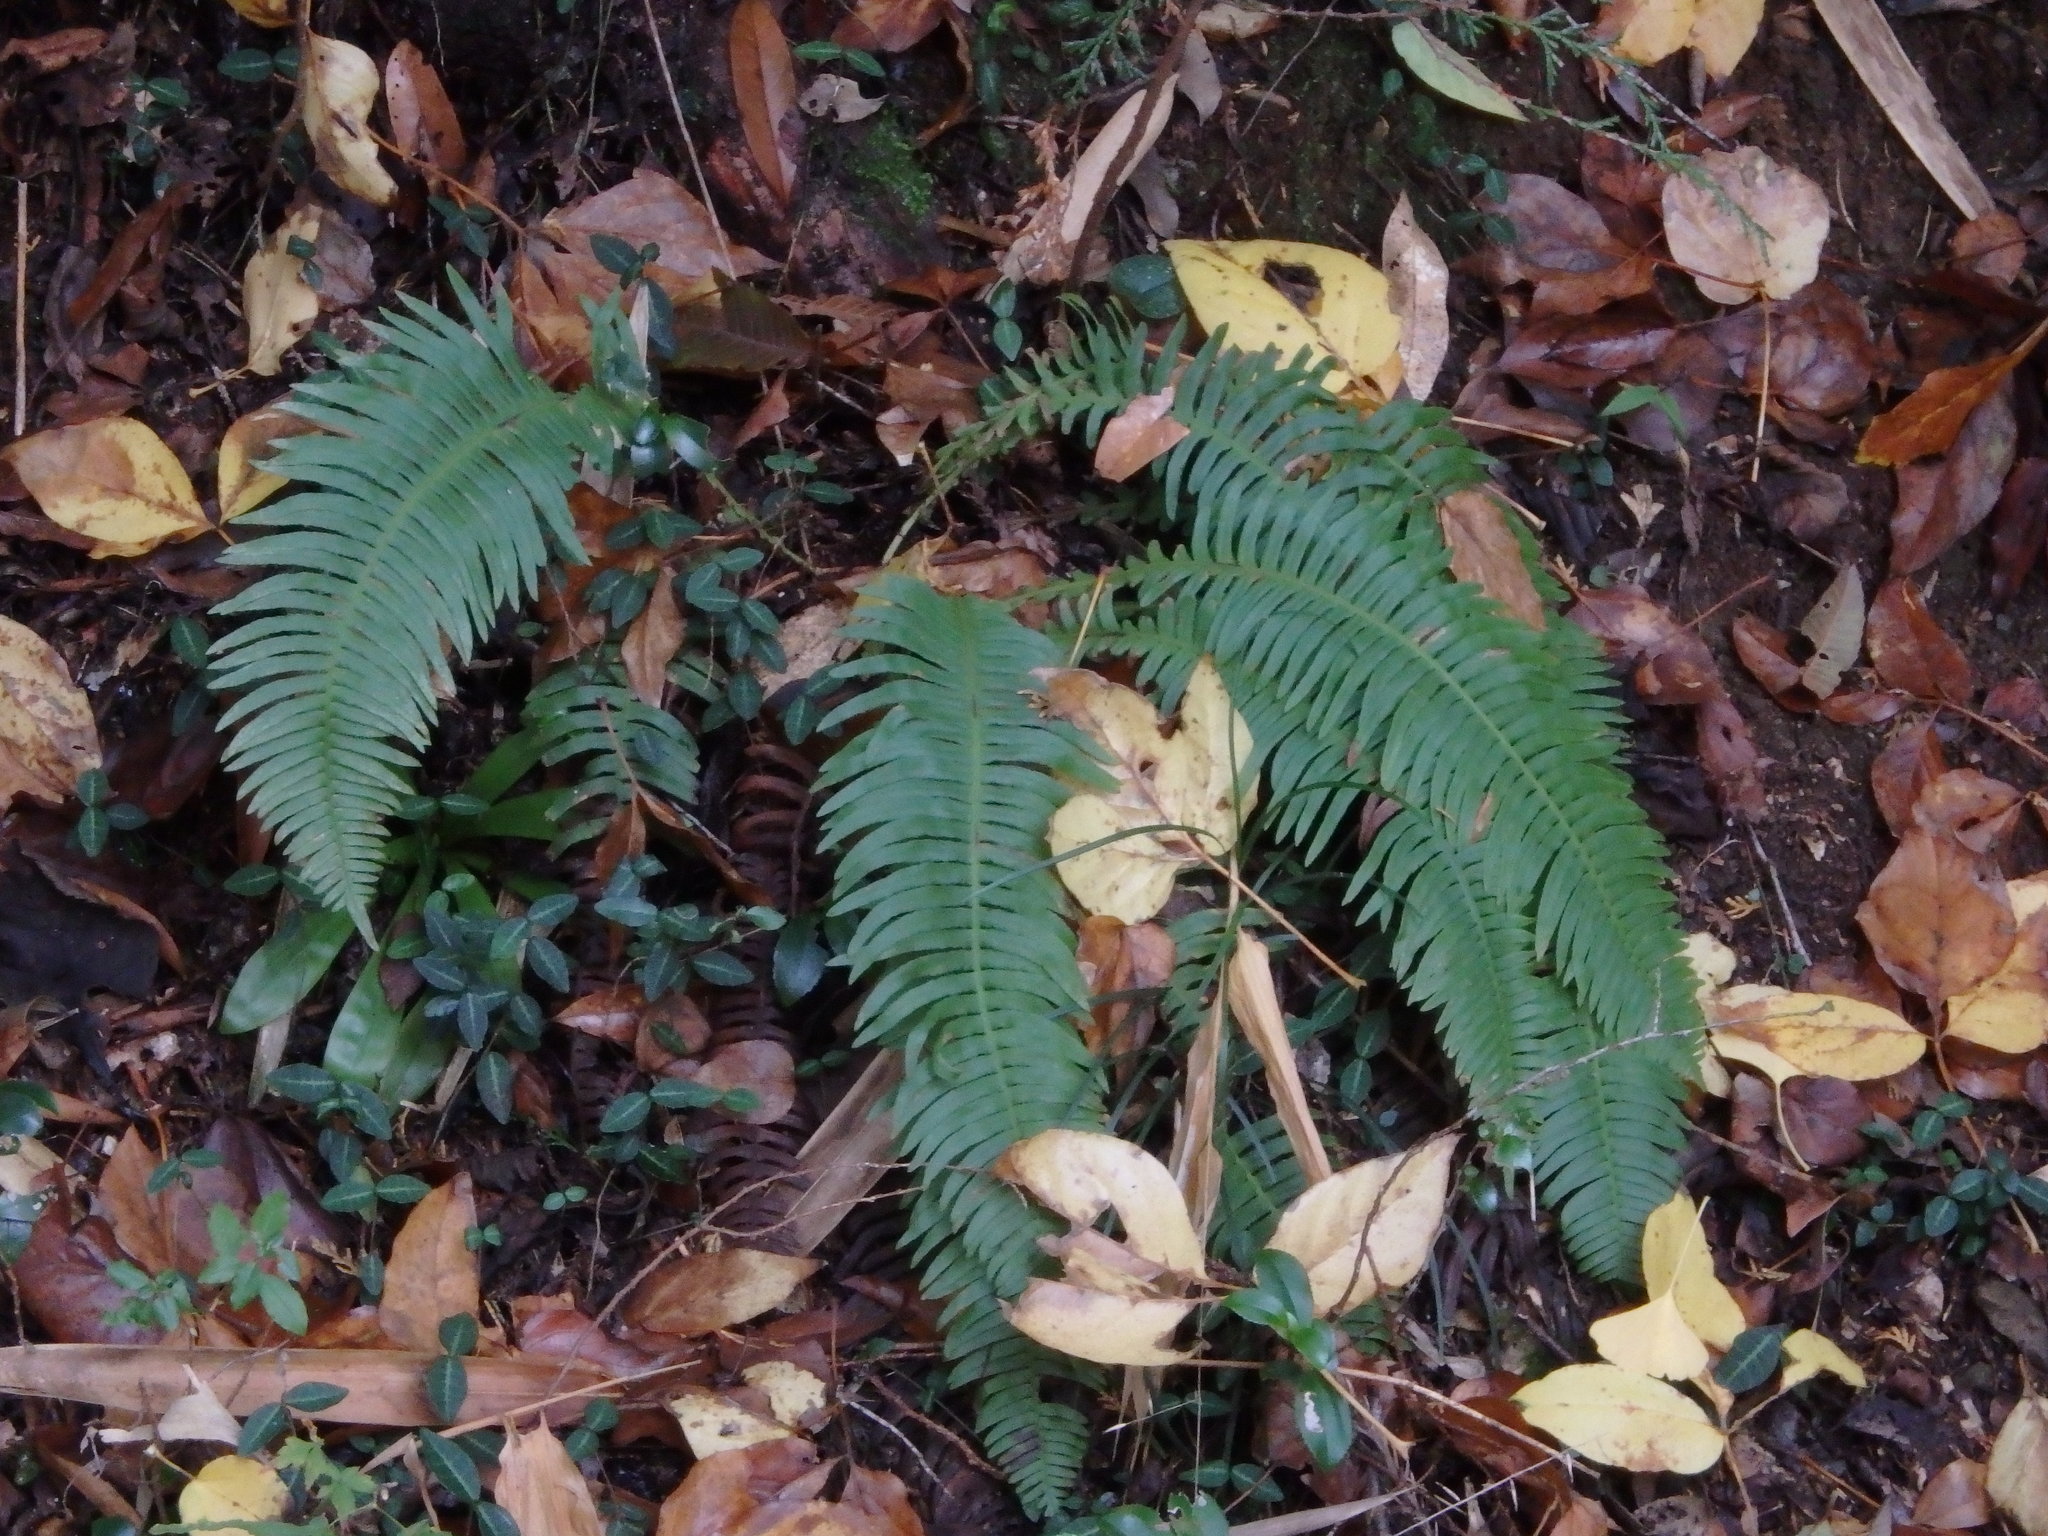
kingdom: Plantae
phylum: Tracheophyta
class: Polypodiopsida
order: Polypodiales
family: Blechnaceae
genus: Spicantopsis
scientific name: Spicantopsis niponica
